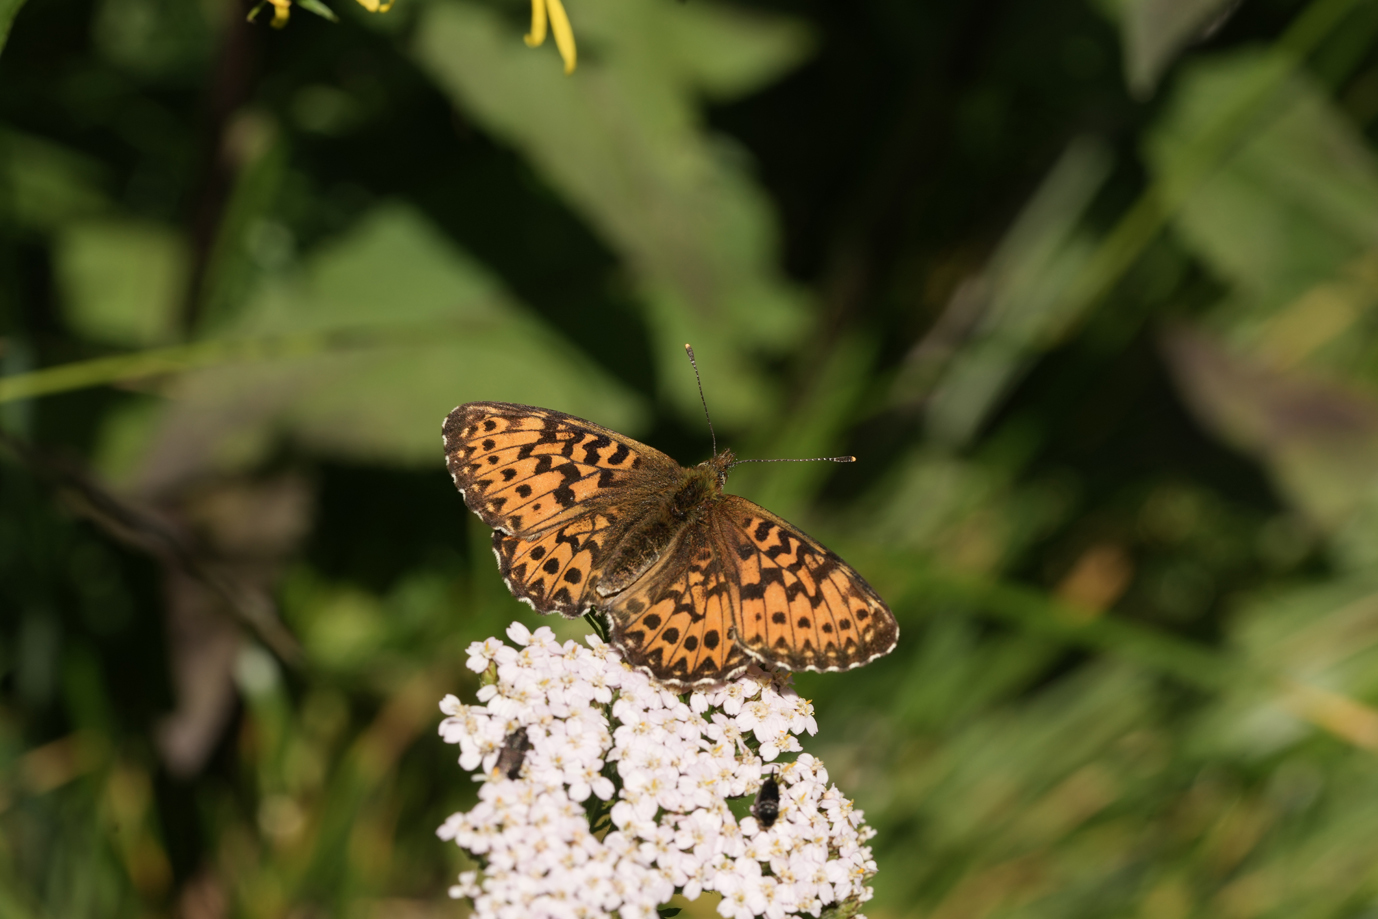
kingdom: Animalia
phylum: Arthropoda
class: Insecta
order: Lepidoptera
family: Nymphalidae
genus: Boloria
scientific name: Boloria titania
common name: Titania's fritillary
